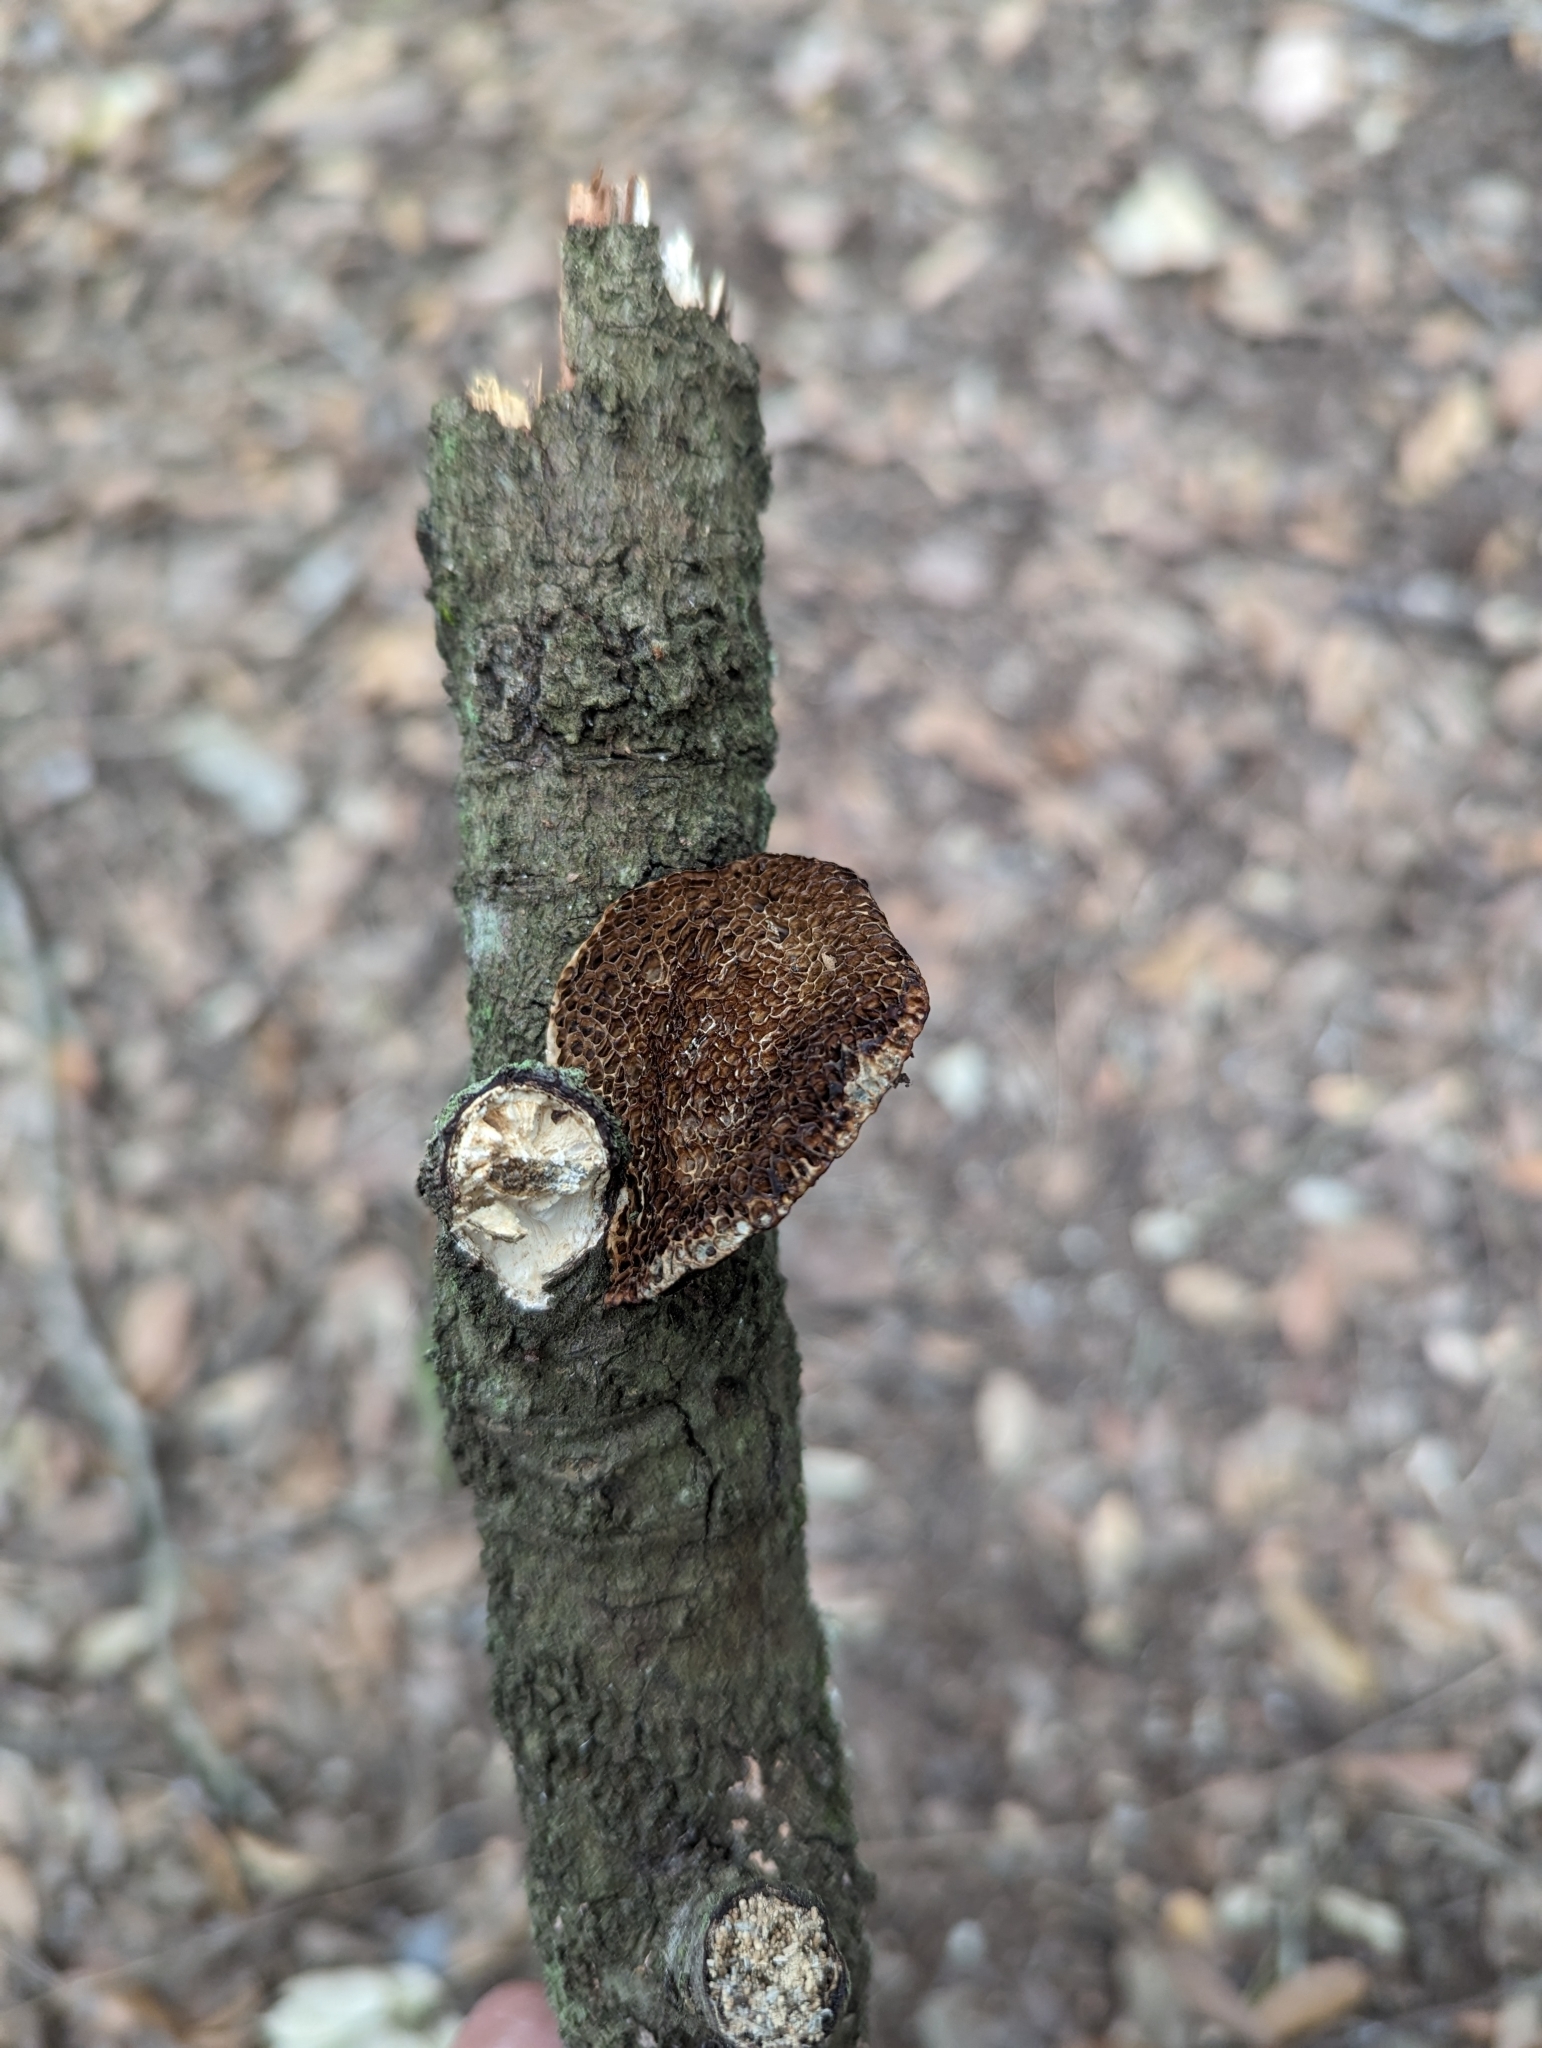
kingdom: Fungi
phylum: Basidiomycota
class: Agaricomycetes
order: Polyporales
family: Polyporaceae
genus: Daedaleopsis
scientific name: Daedaleopsis nitida
